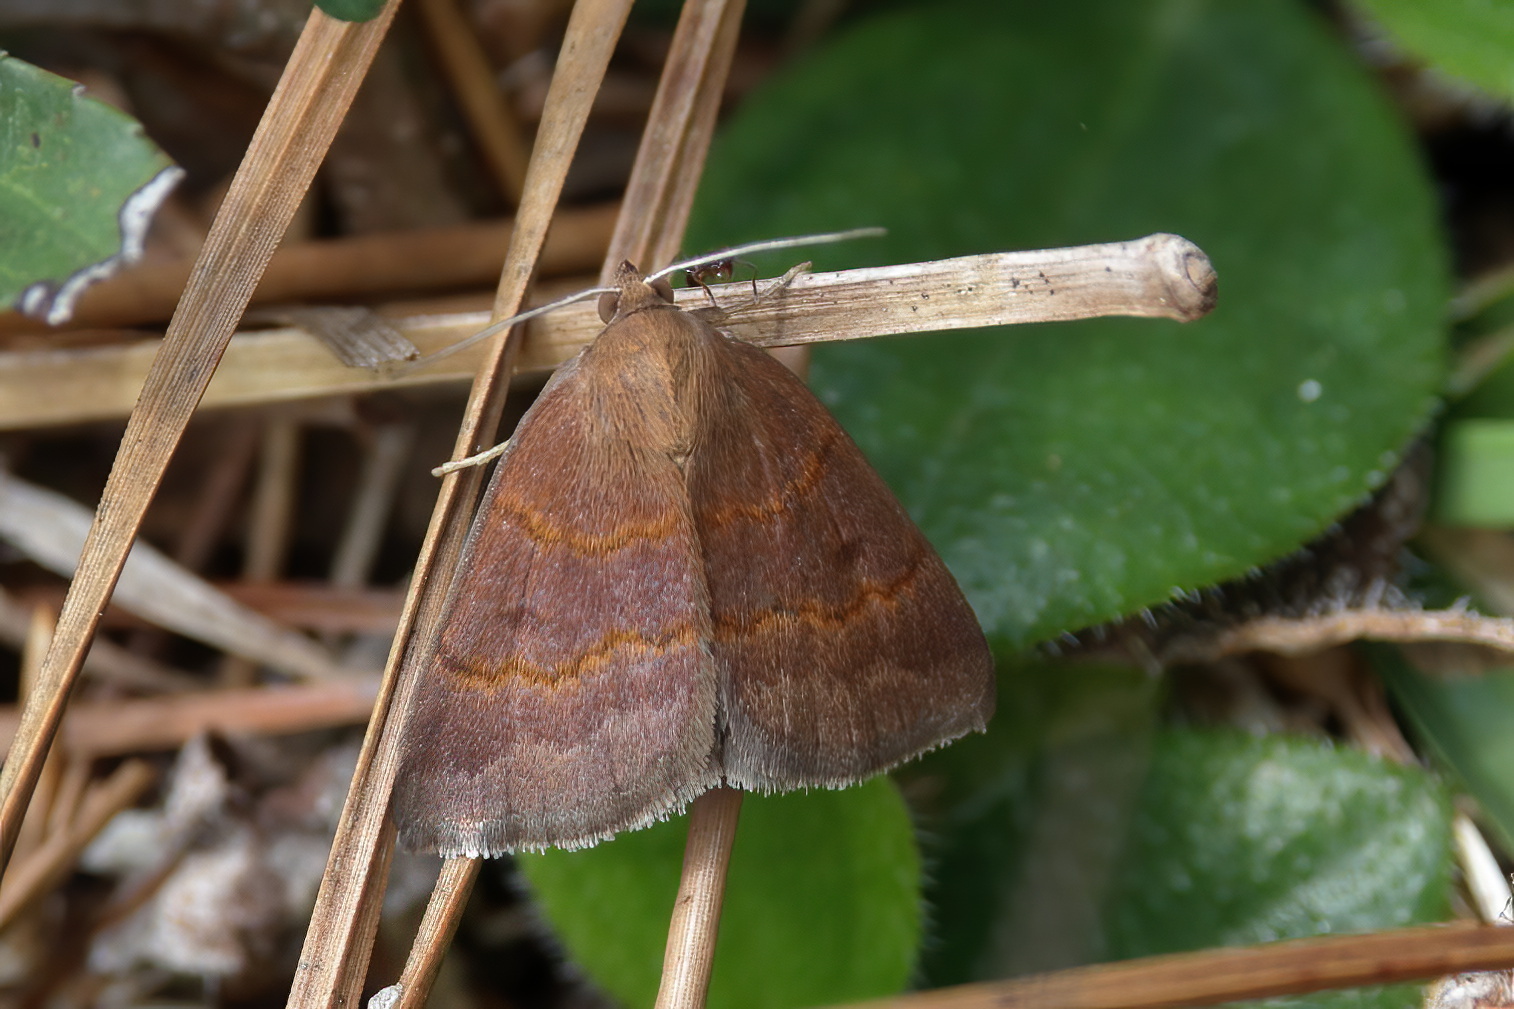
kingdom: Animalia
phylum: Arthropoda
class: Insecta
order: Lepidoptera
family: Erebidae
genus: Argyrostrotis
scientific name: Argyrostrotis deleta
